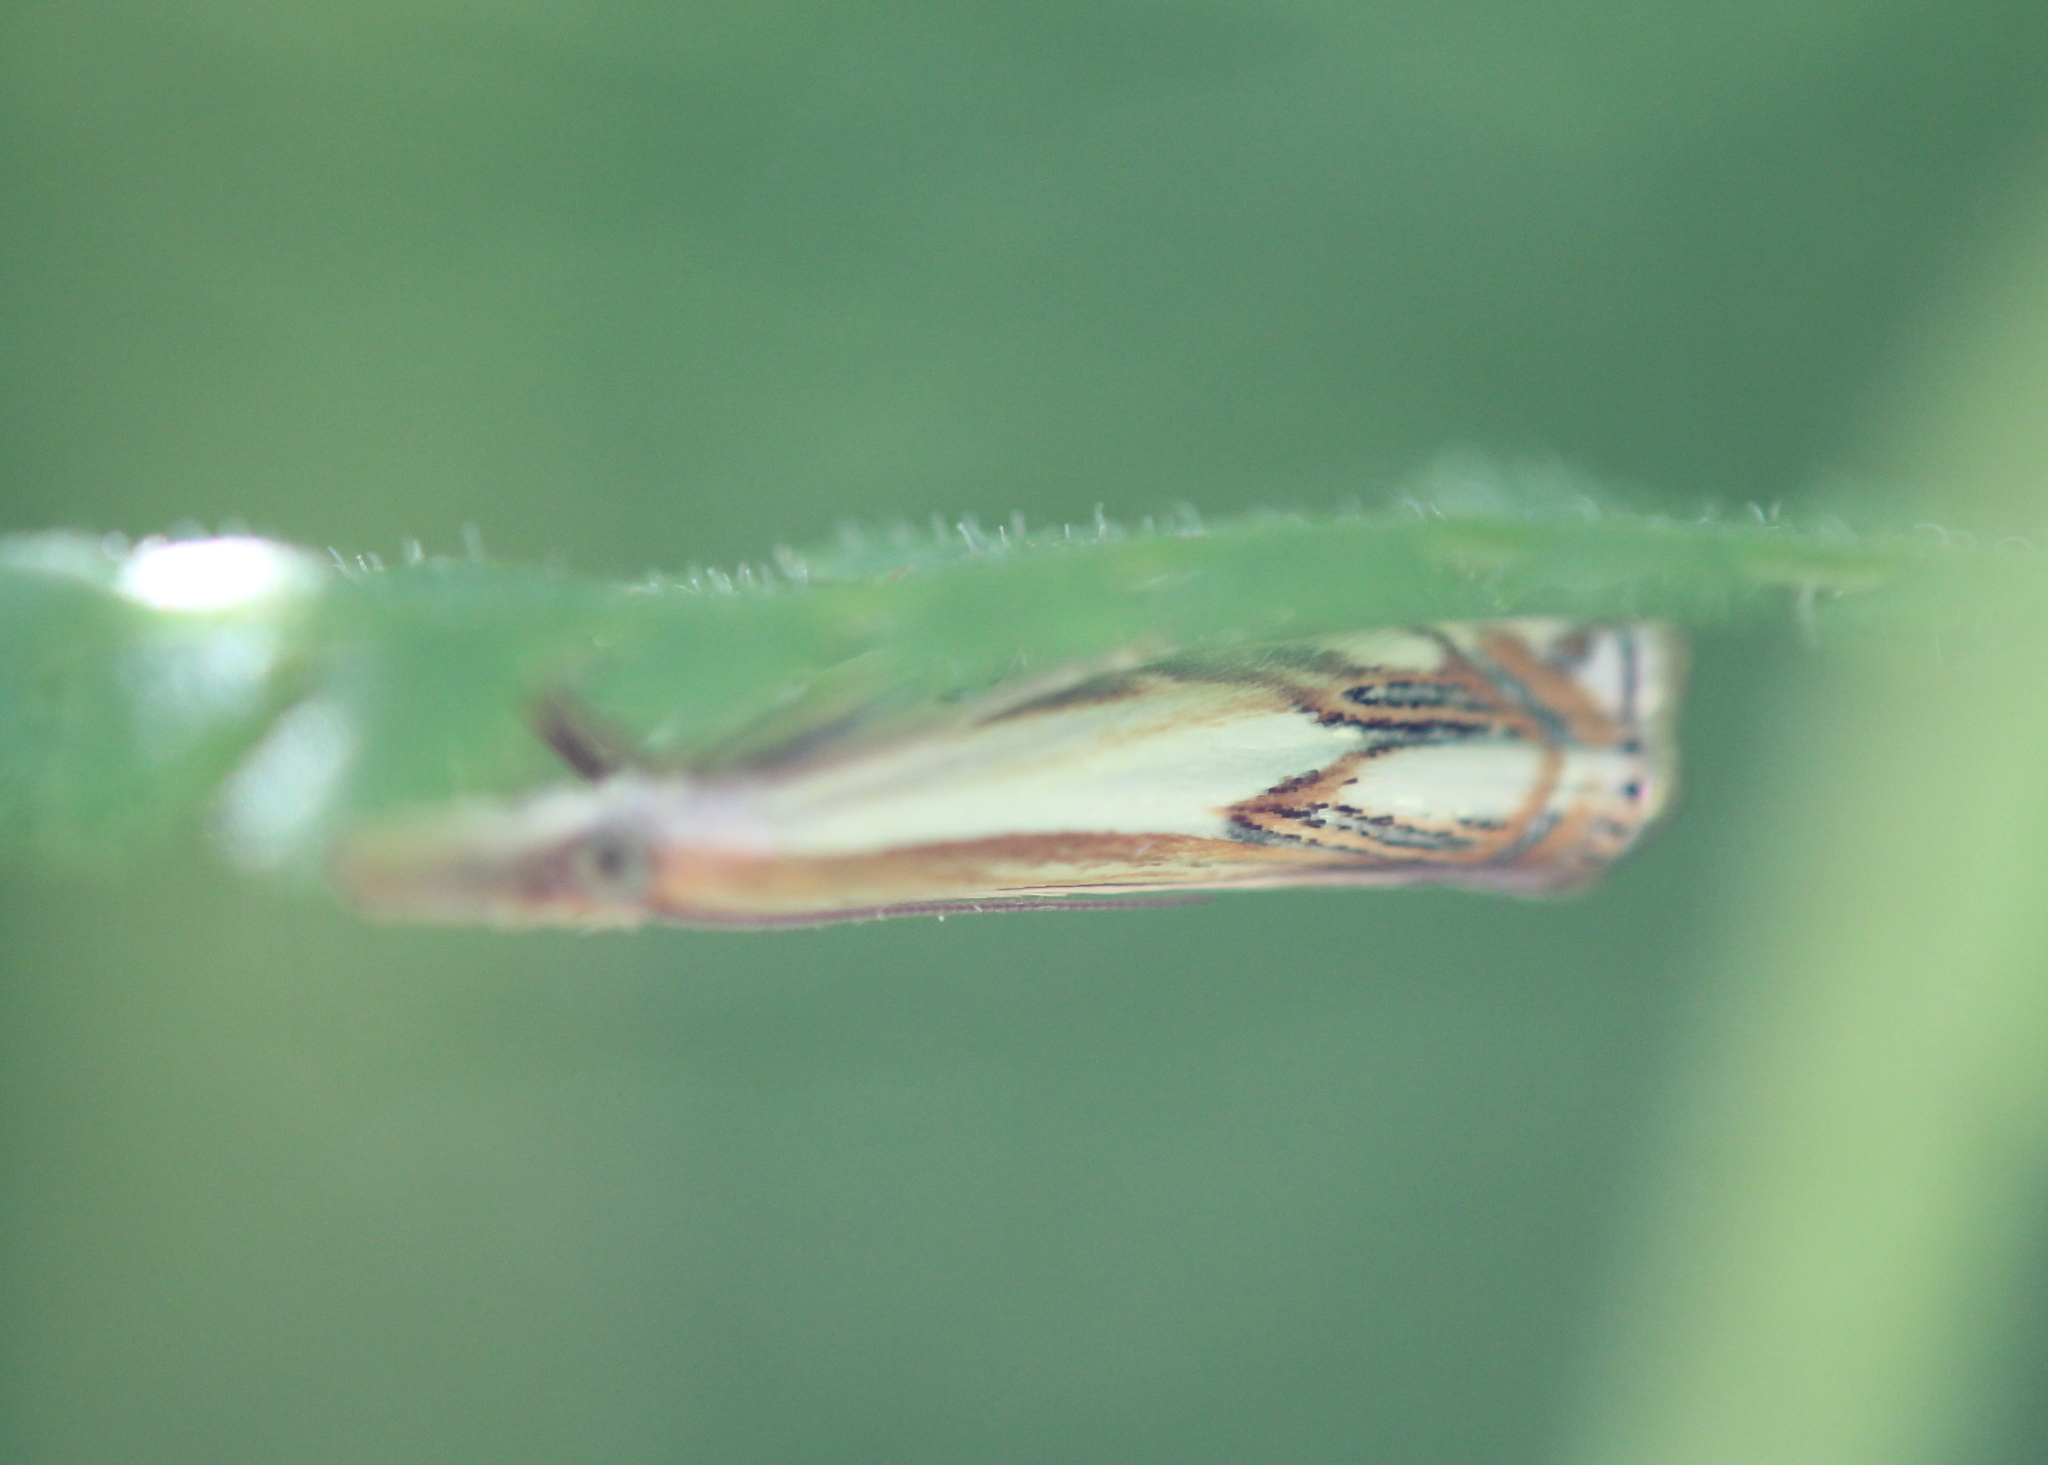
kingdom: Animalia
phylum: Arthropoda
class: Insecta
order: Lepidoptera
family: Crambidae
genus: Crambus
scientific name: Crambus agitatellus
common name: Double-banded grass-veneer
